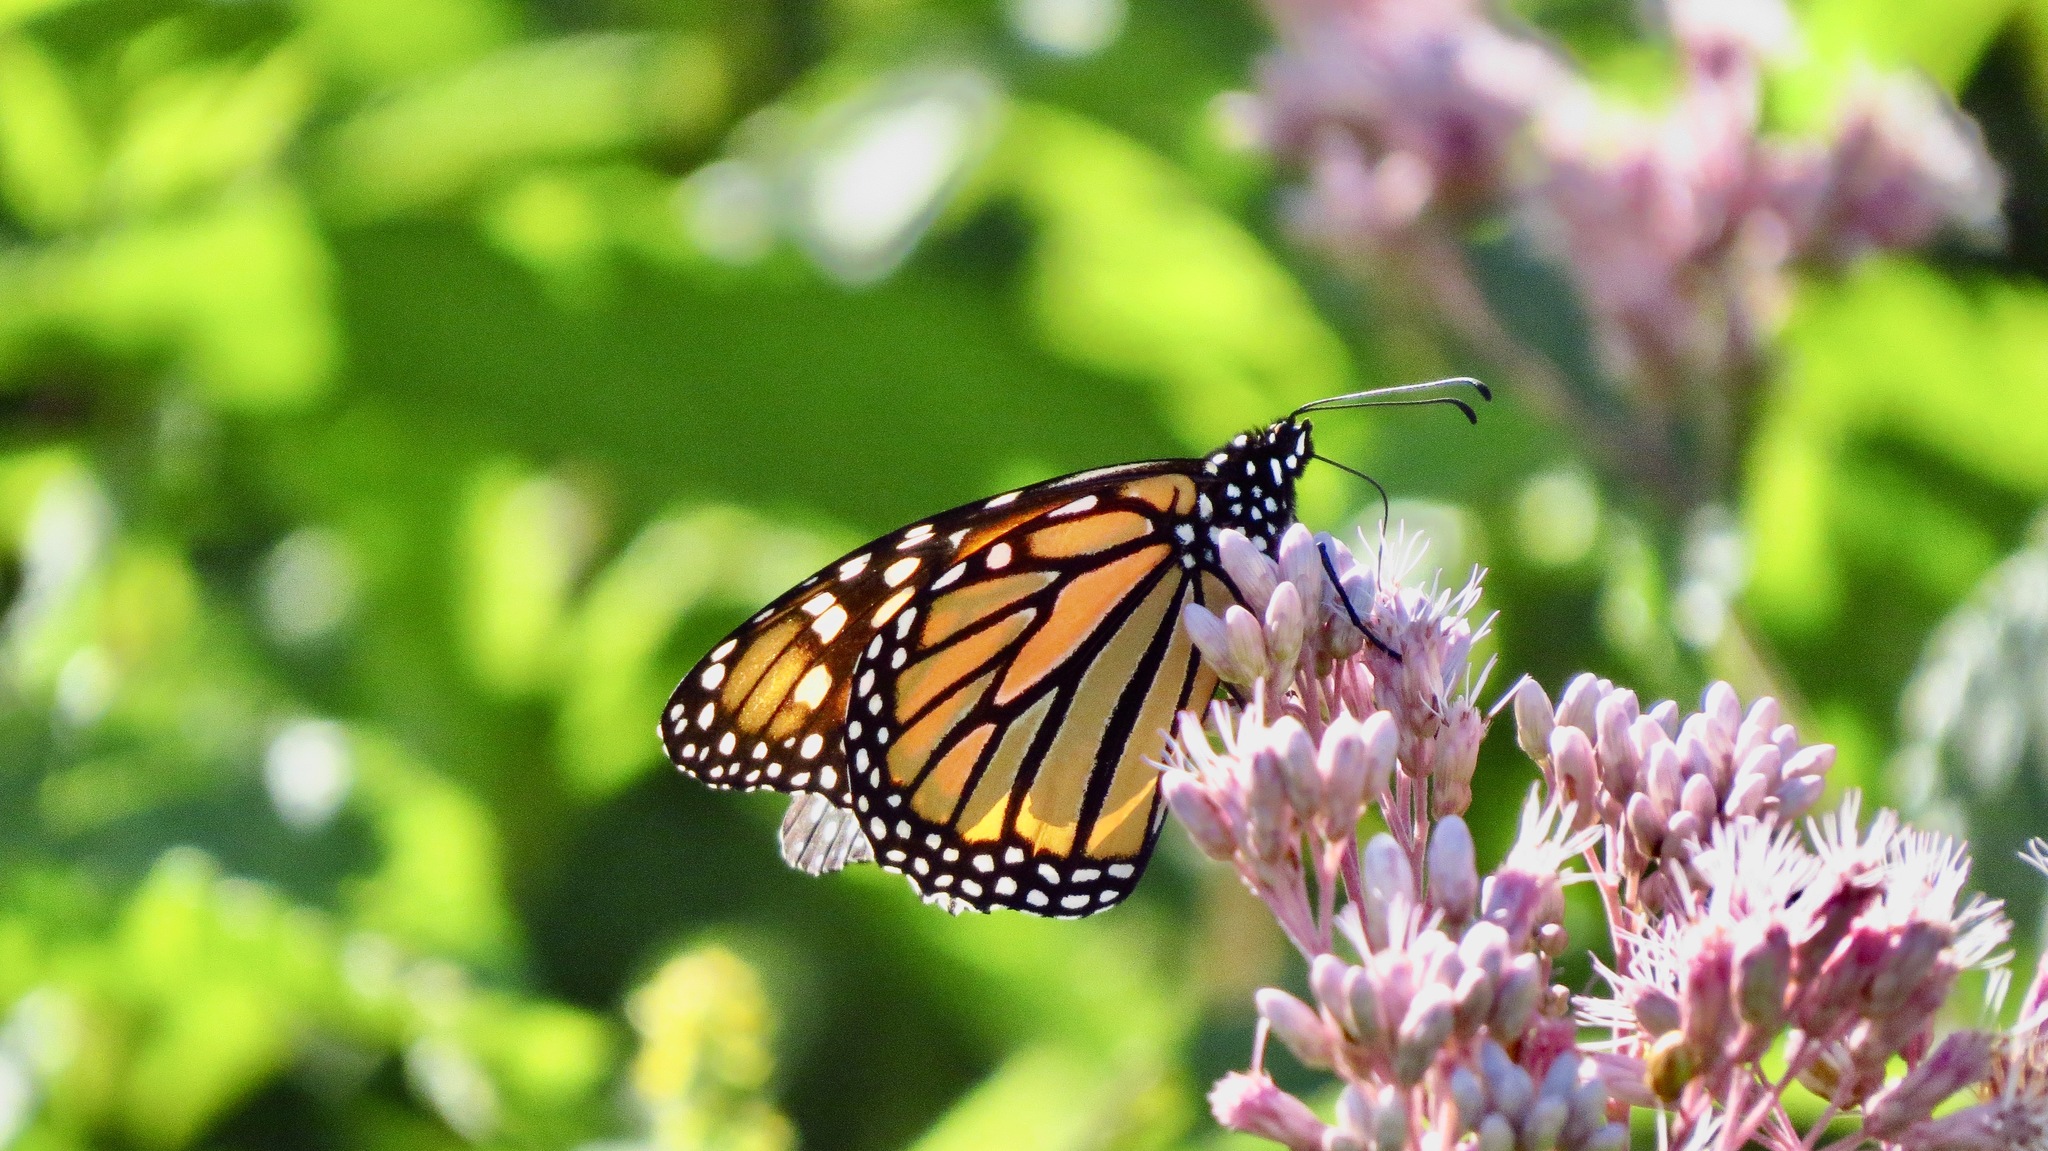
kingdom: Animalia
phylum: Arthropoda
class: Insecta
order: Lepidoptera
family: Nymphalidae
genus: Danaus
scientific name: Danaus plexippus
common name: Monarch
